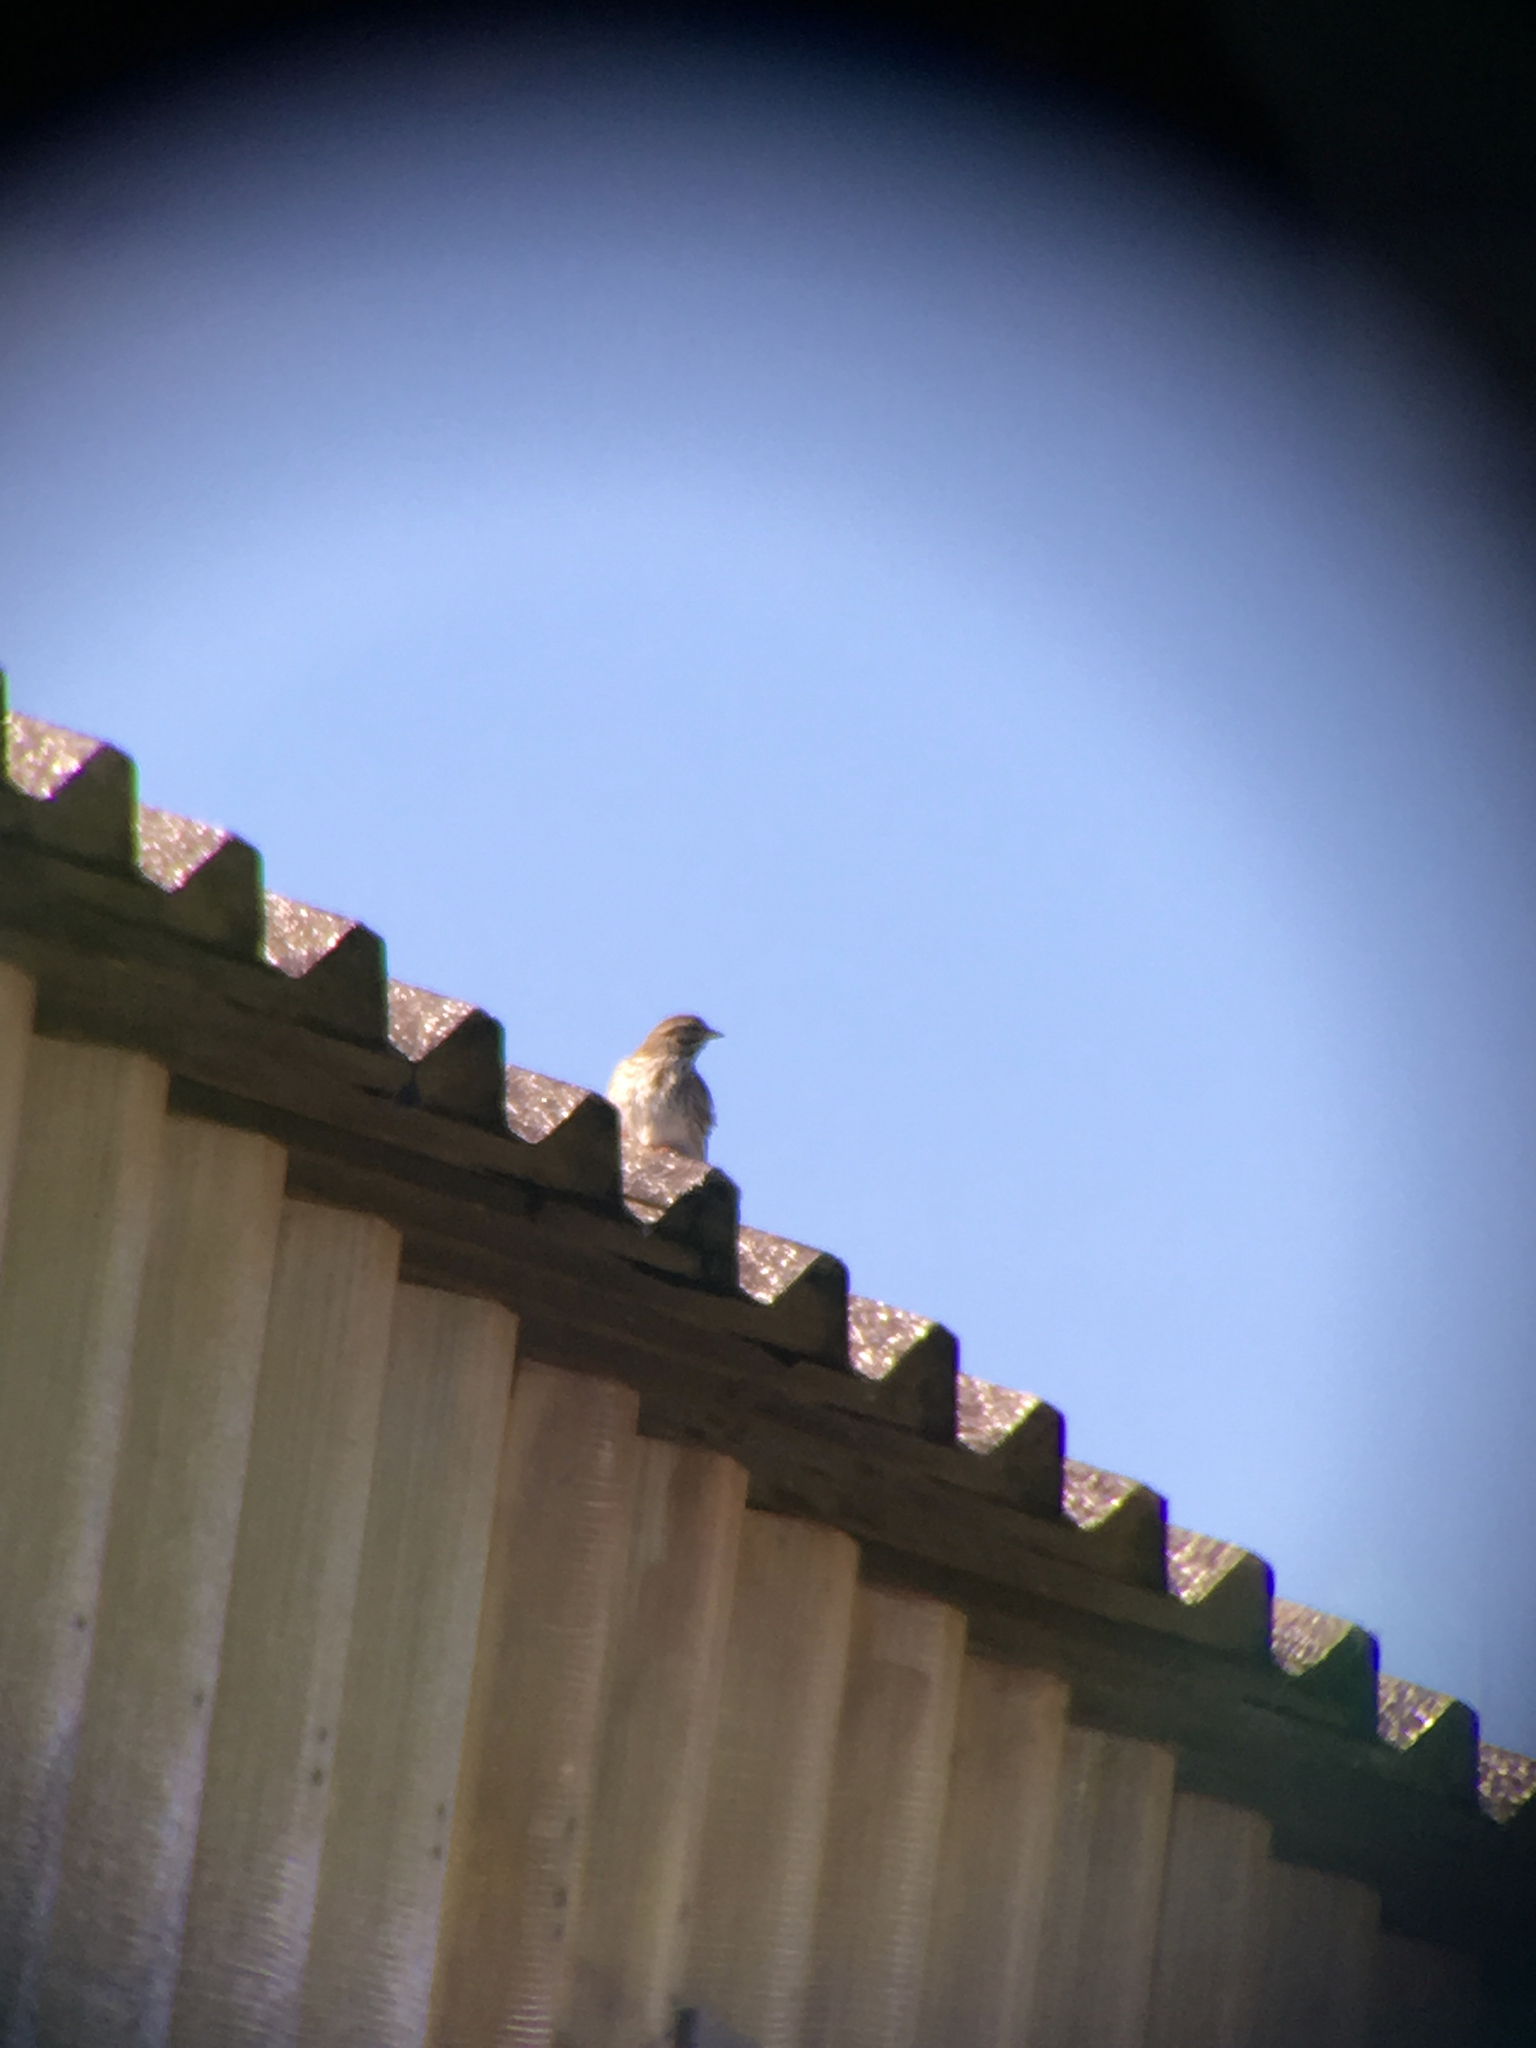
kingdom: Animalia
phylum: Chordata
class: Aves
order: Passeriformes
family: Passerellidae
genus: Passerculus
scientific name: Passerculus sandwichensis
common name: Savannah sparrow
